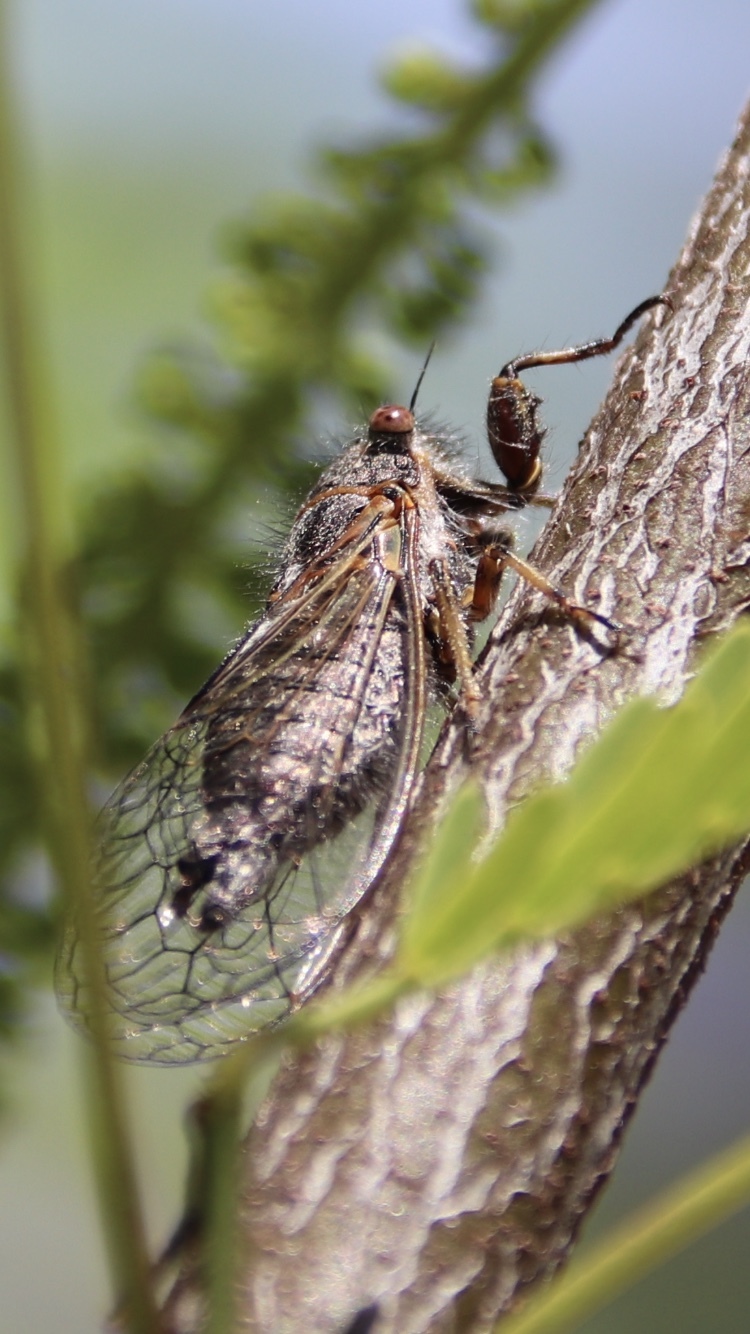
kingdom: Animalia
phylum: Arthropoda
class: Insecta
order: Hemiptera
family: Cicadidae
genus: Platypedia
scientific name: Platypedia vanduzeei
